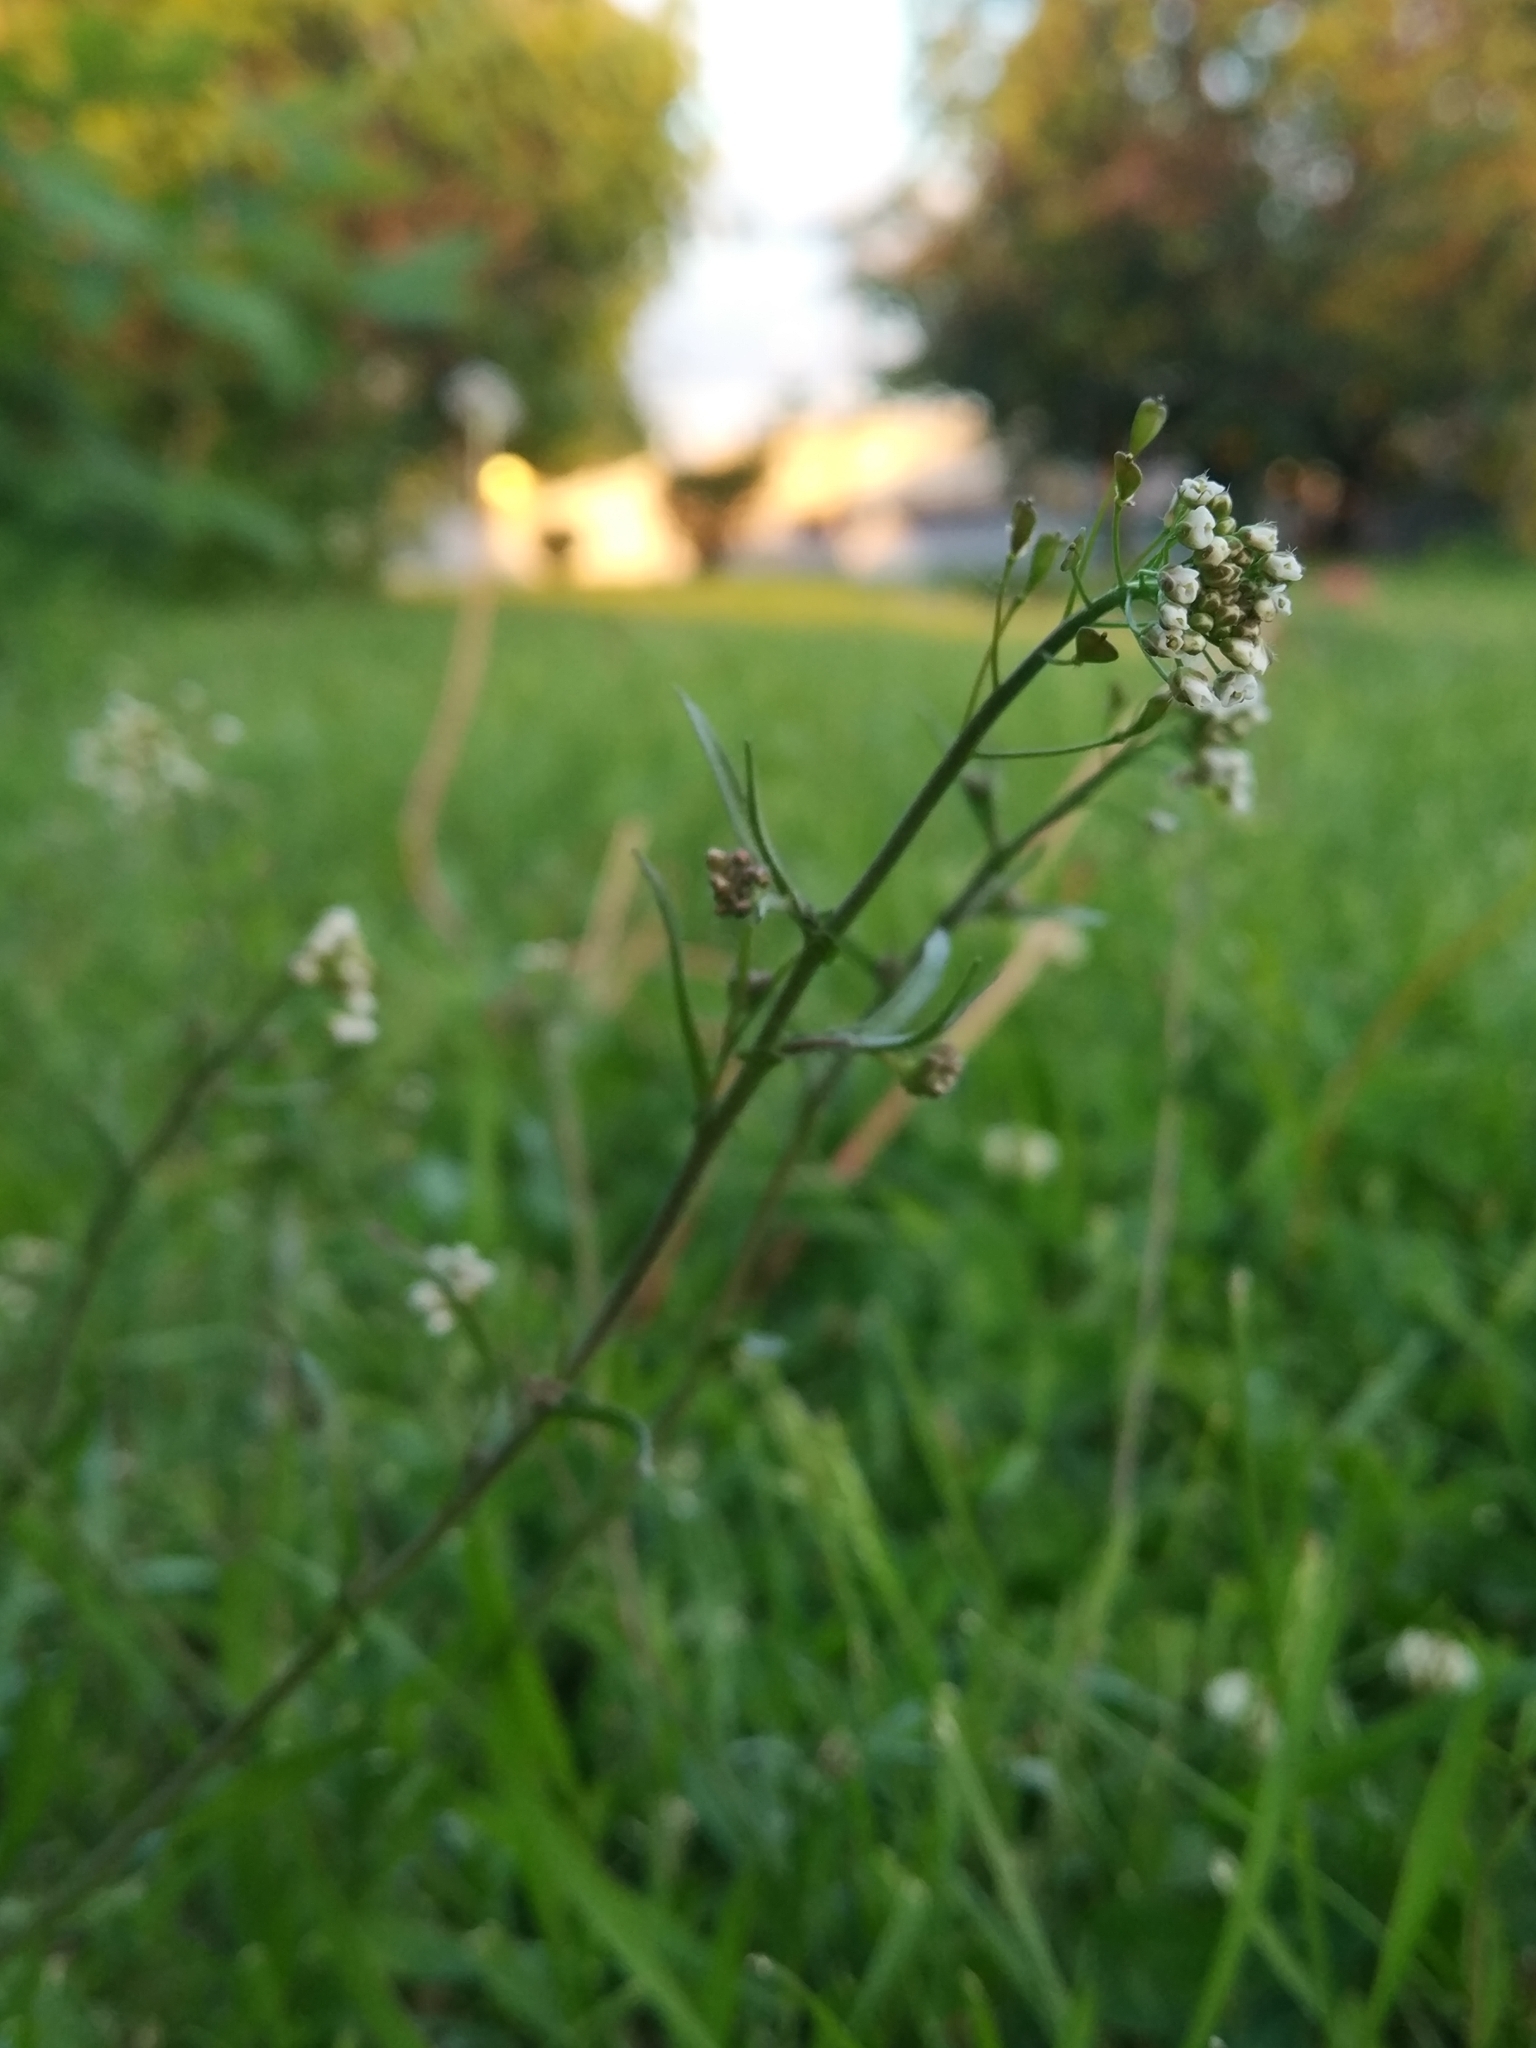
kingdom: Plantae
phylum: Tracheophyta
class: Magnoliopsida
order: Brassicales
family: Brassicaceae
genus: Capsella
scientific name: Capsella bursa-pastoris
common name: Shepherd's purse
